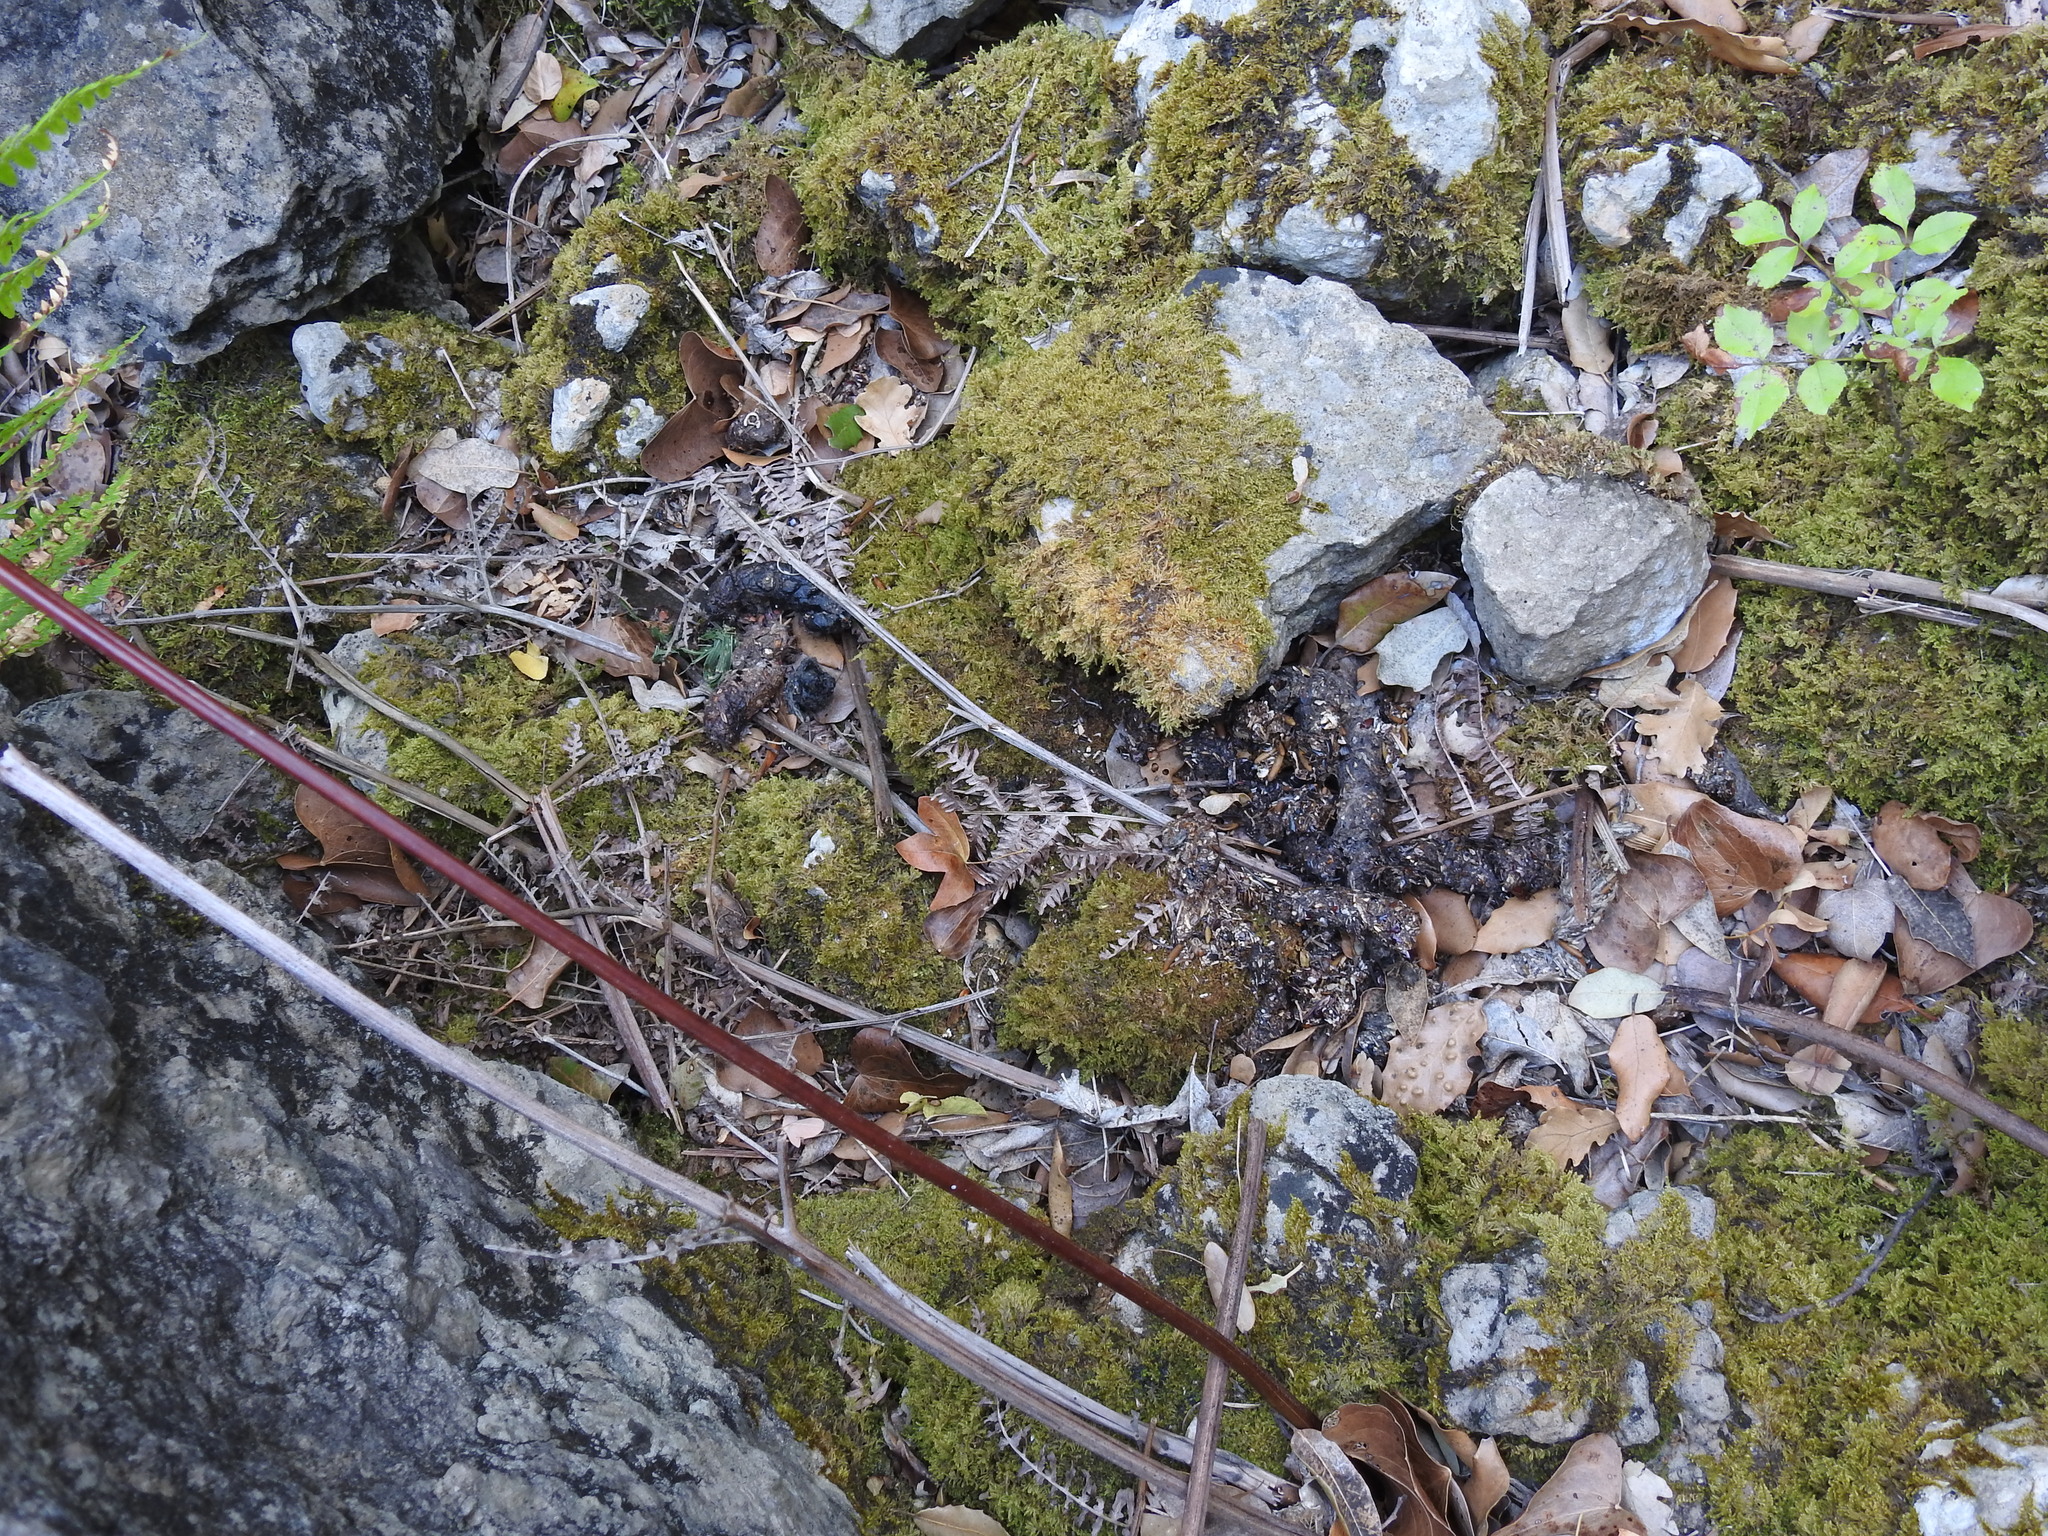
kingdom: Animalia
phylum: Chordata
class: Mammalia
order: Carnivora
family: Viverridae
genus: Genetta
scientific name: Genetta genetta
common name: Common genet
